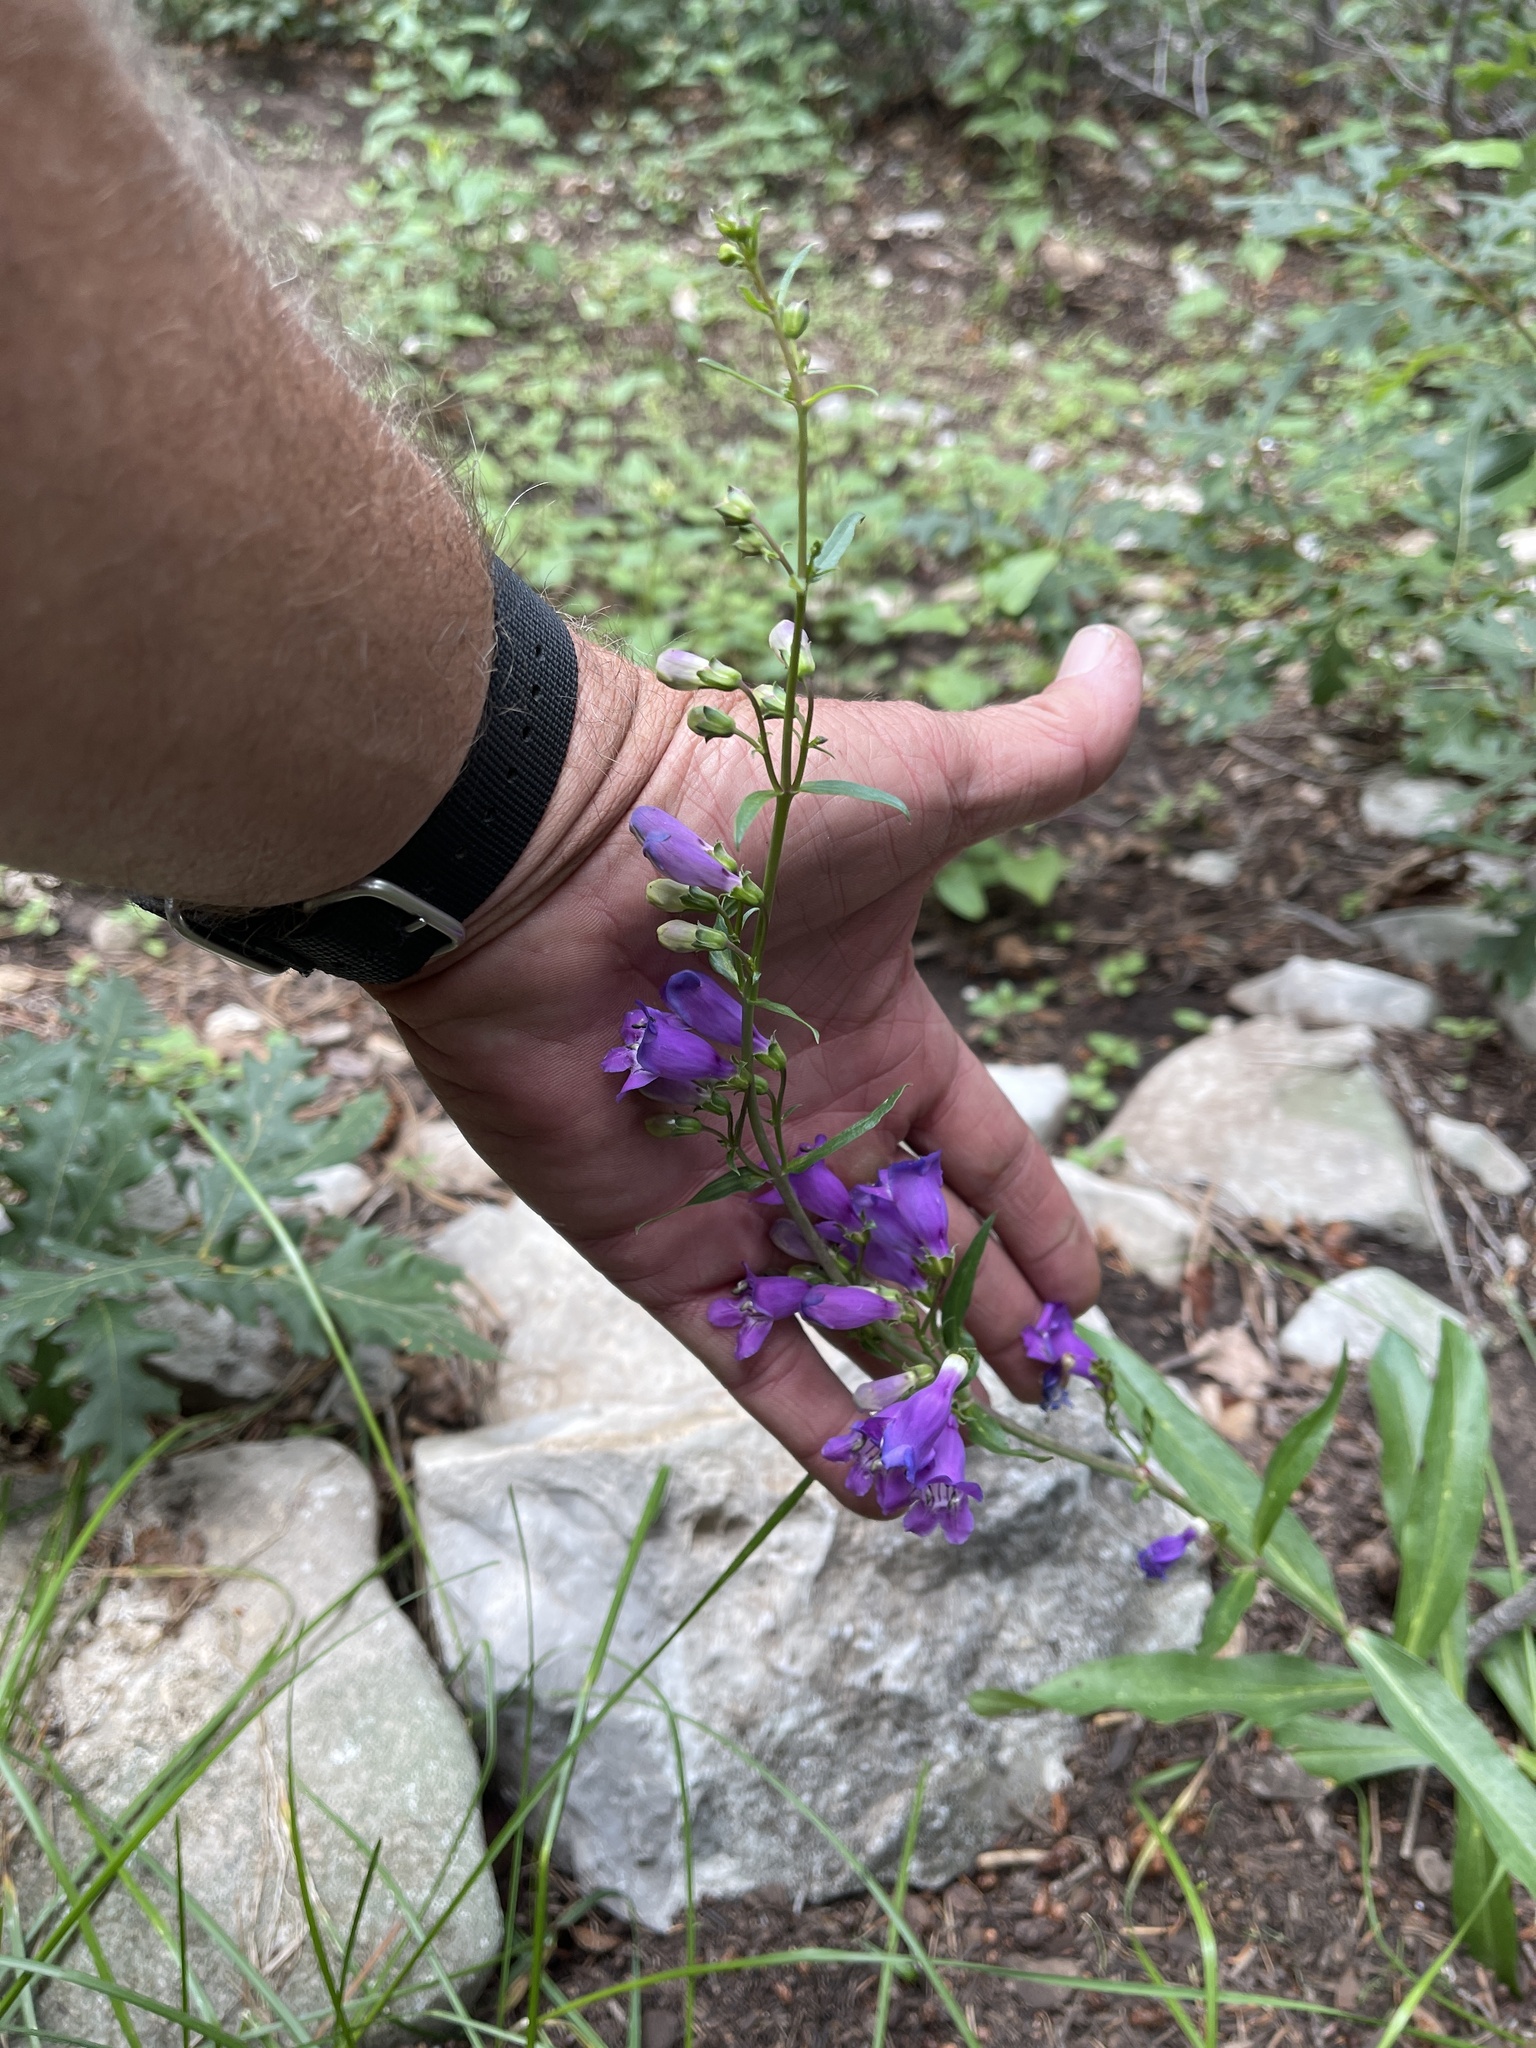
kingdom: Plantae
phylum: Tracheophyta
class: Magnoliopsida
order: Lamiales
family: Plantaginaceae
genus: Penstemon
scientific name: Penstemon neomexicanus
